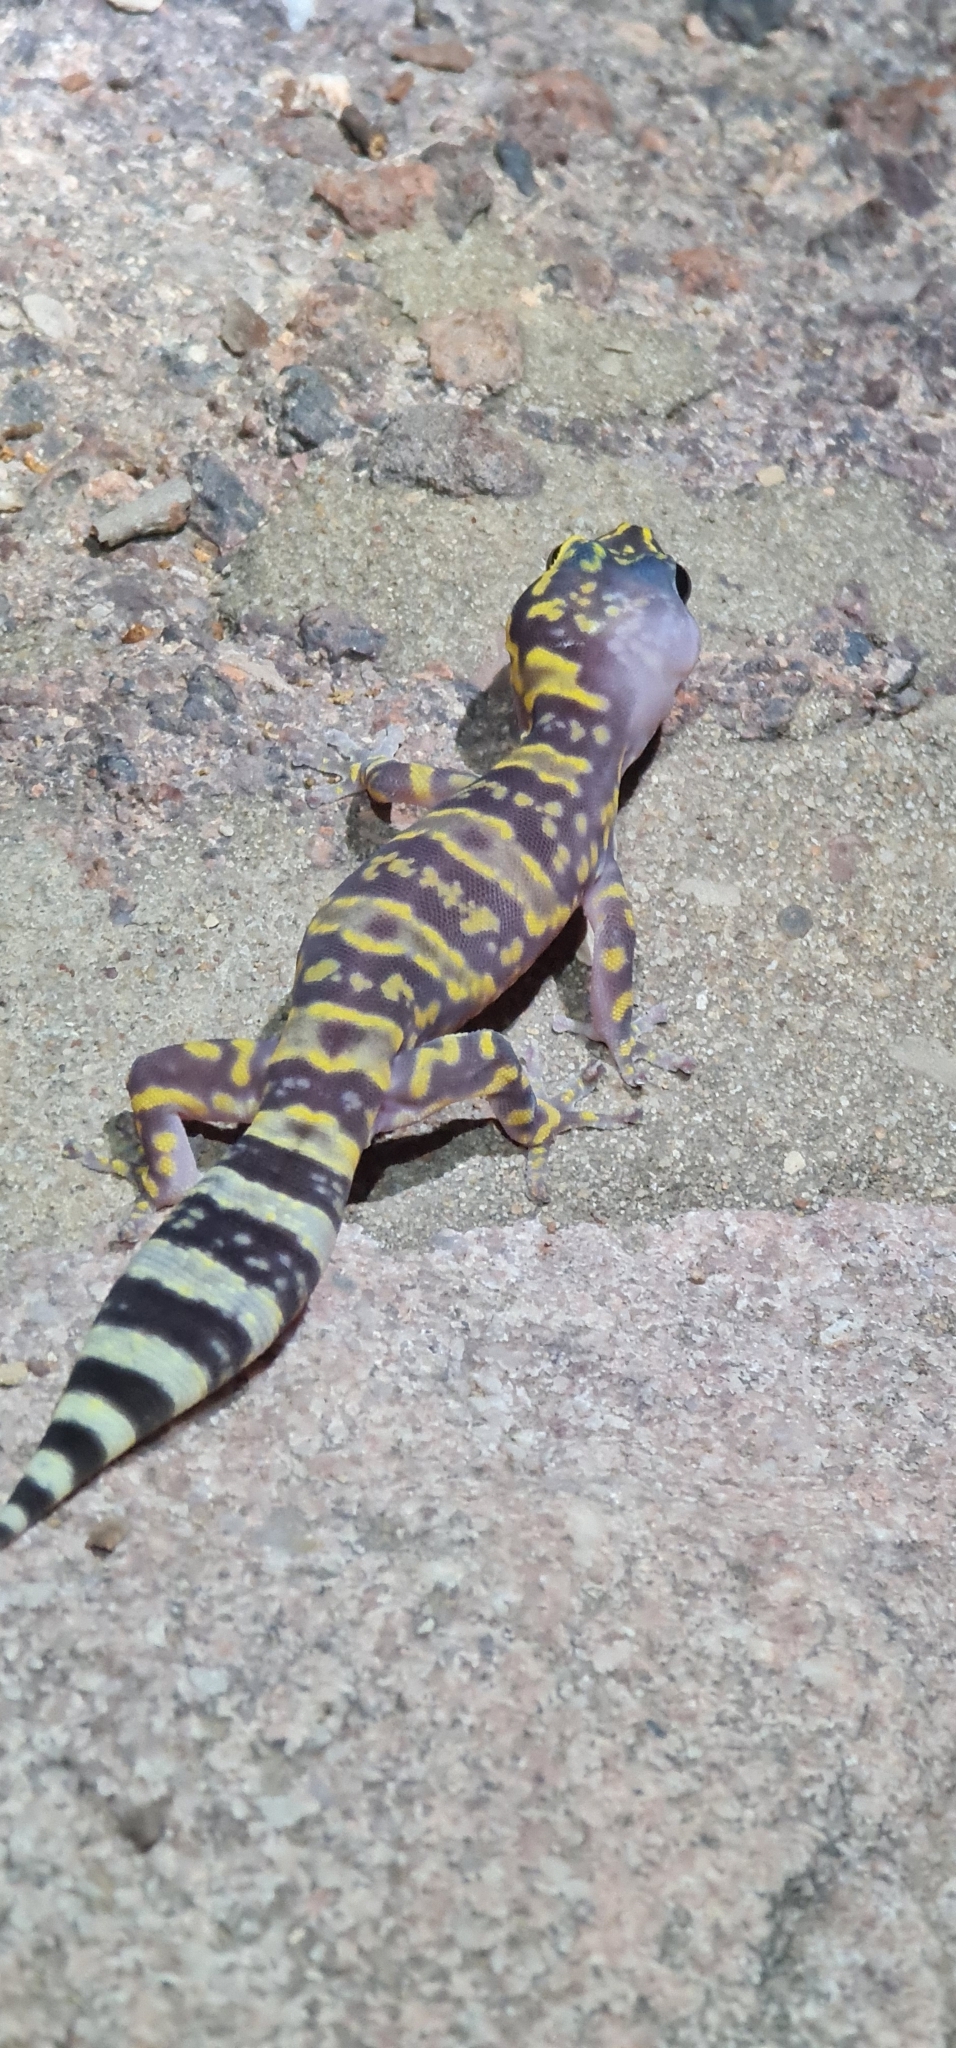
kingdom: Animalia
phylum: Chordata
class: Squamata
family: Diplodactylidae
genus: Oedura
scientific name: Oedura marmorata
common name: Marbled velvet gecko
